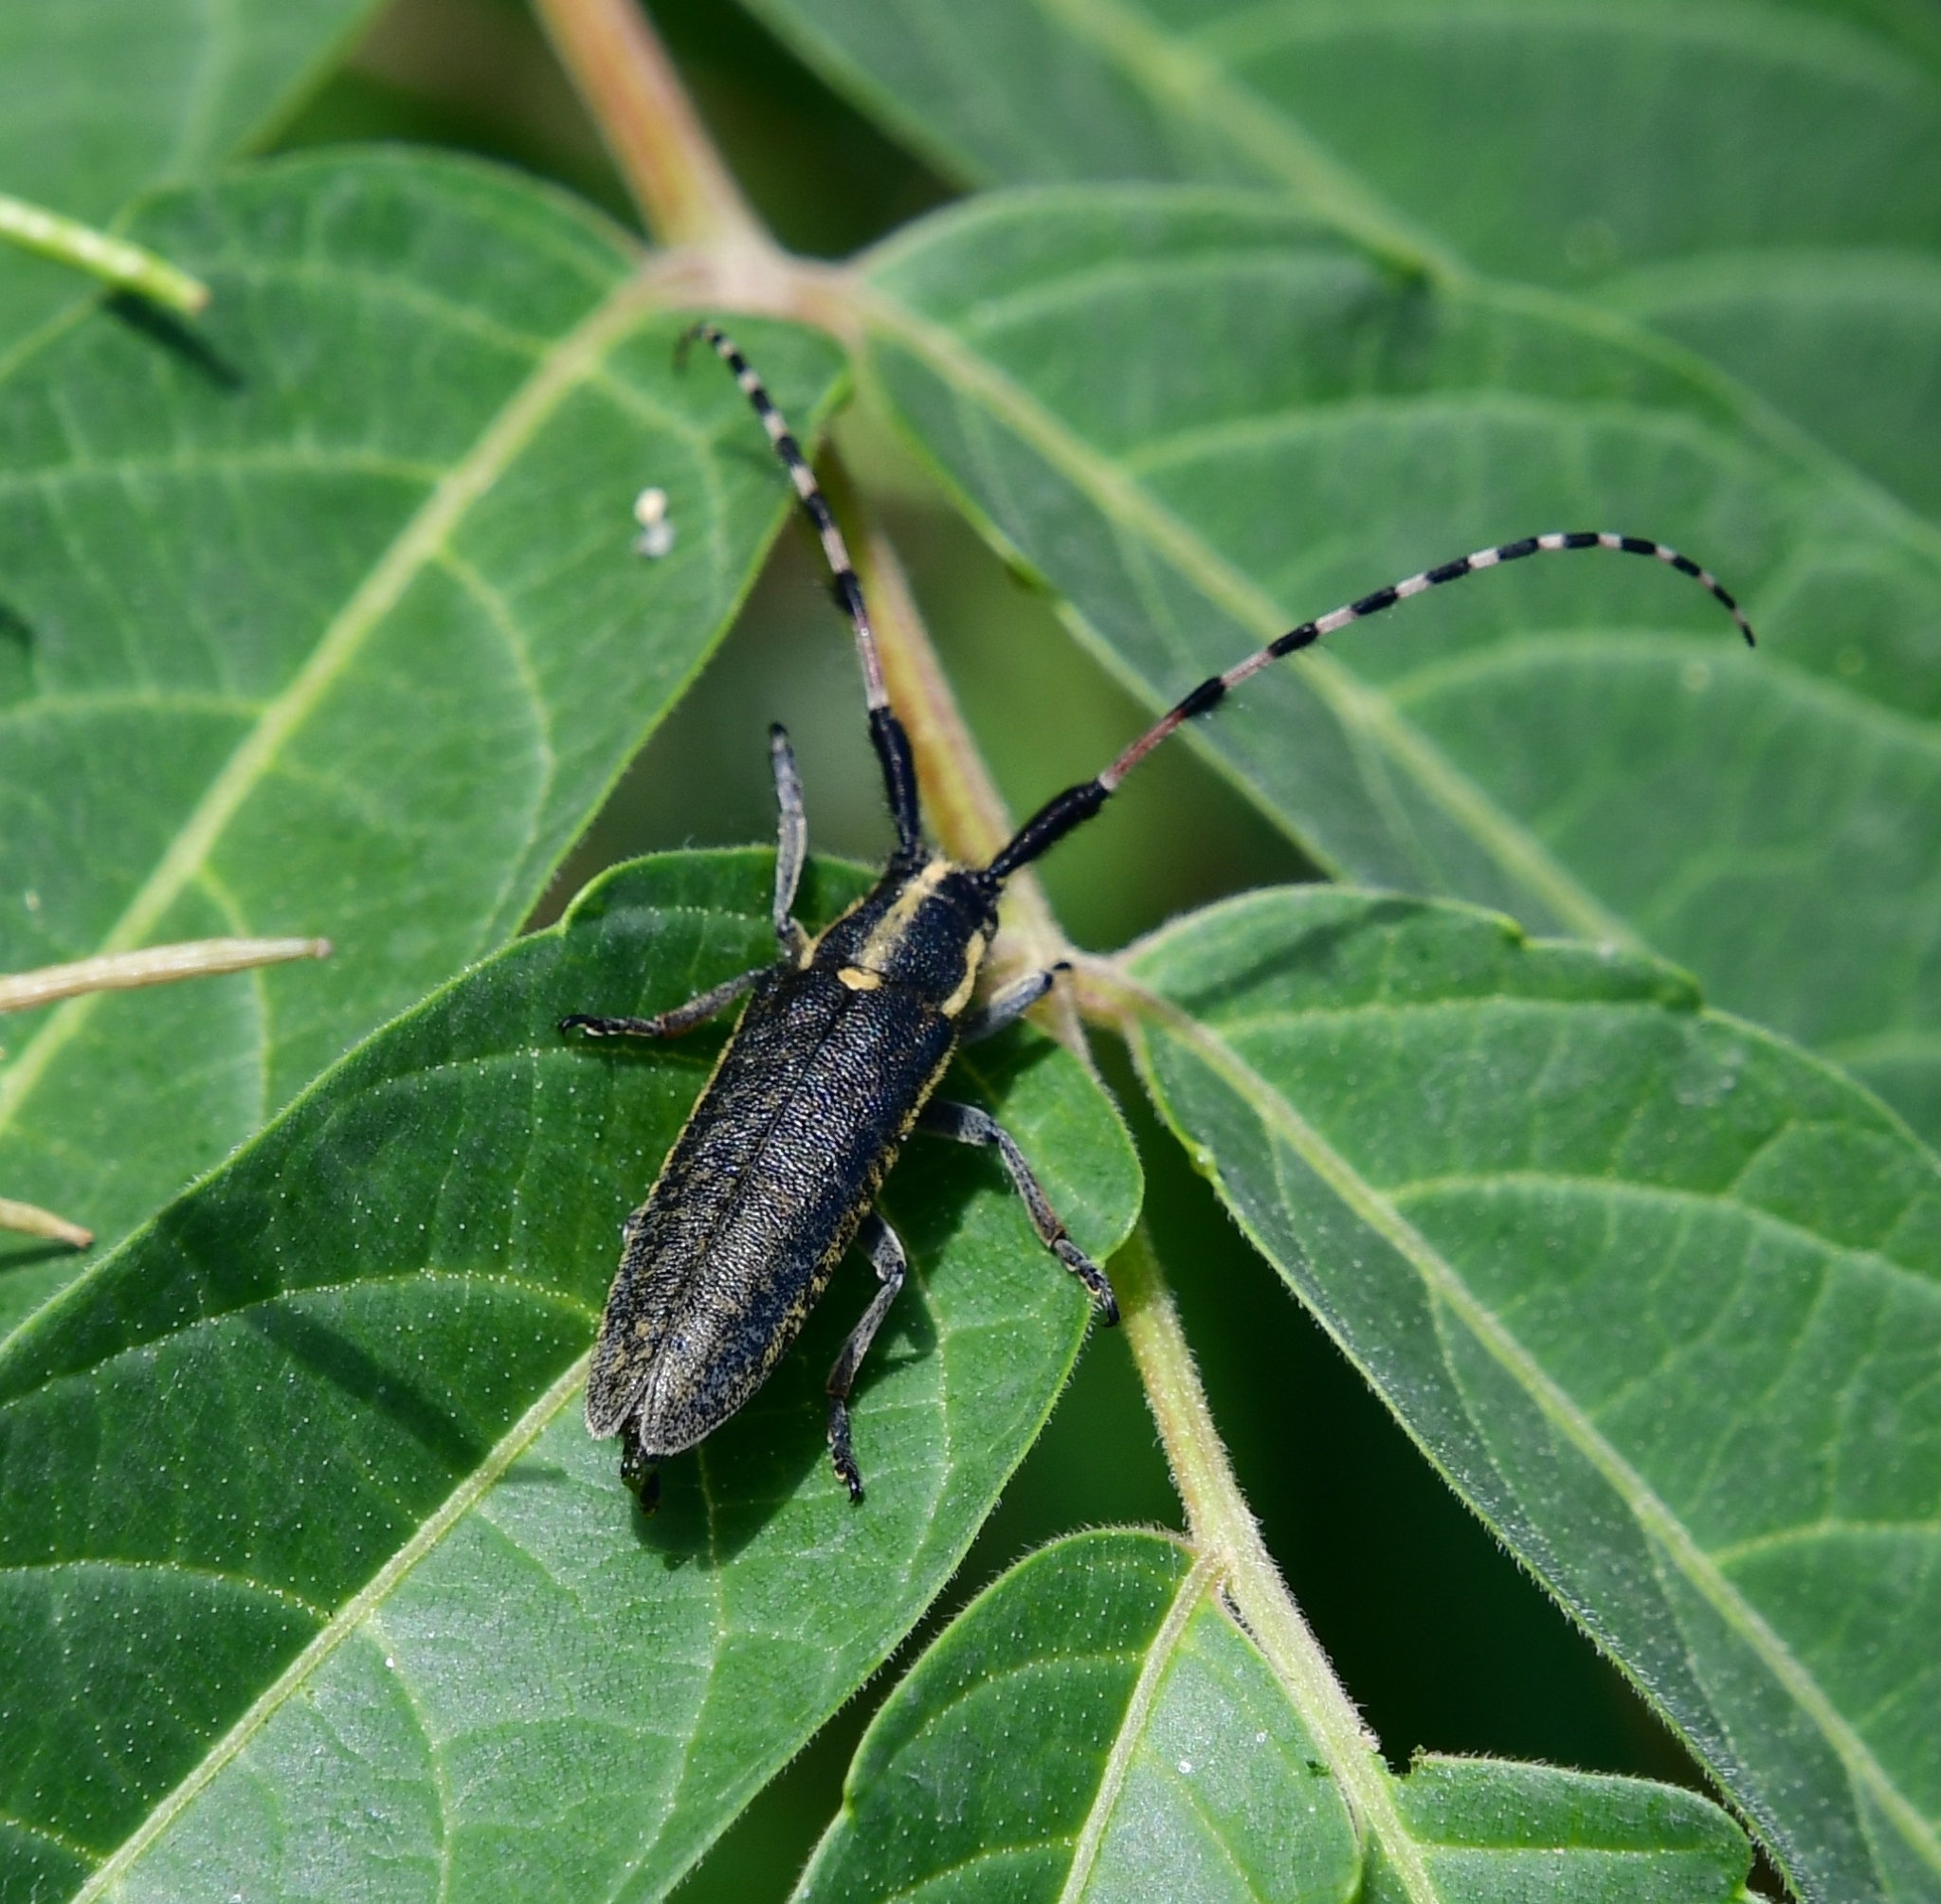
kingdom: Animalia
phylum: Arthropoda
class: Insecta
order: Coleoptera
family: Cerambycidae
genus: Agapanthia
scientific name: Agapanthia dahlii
